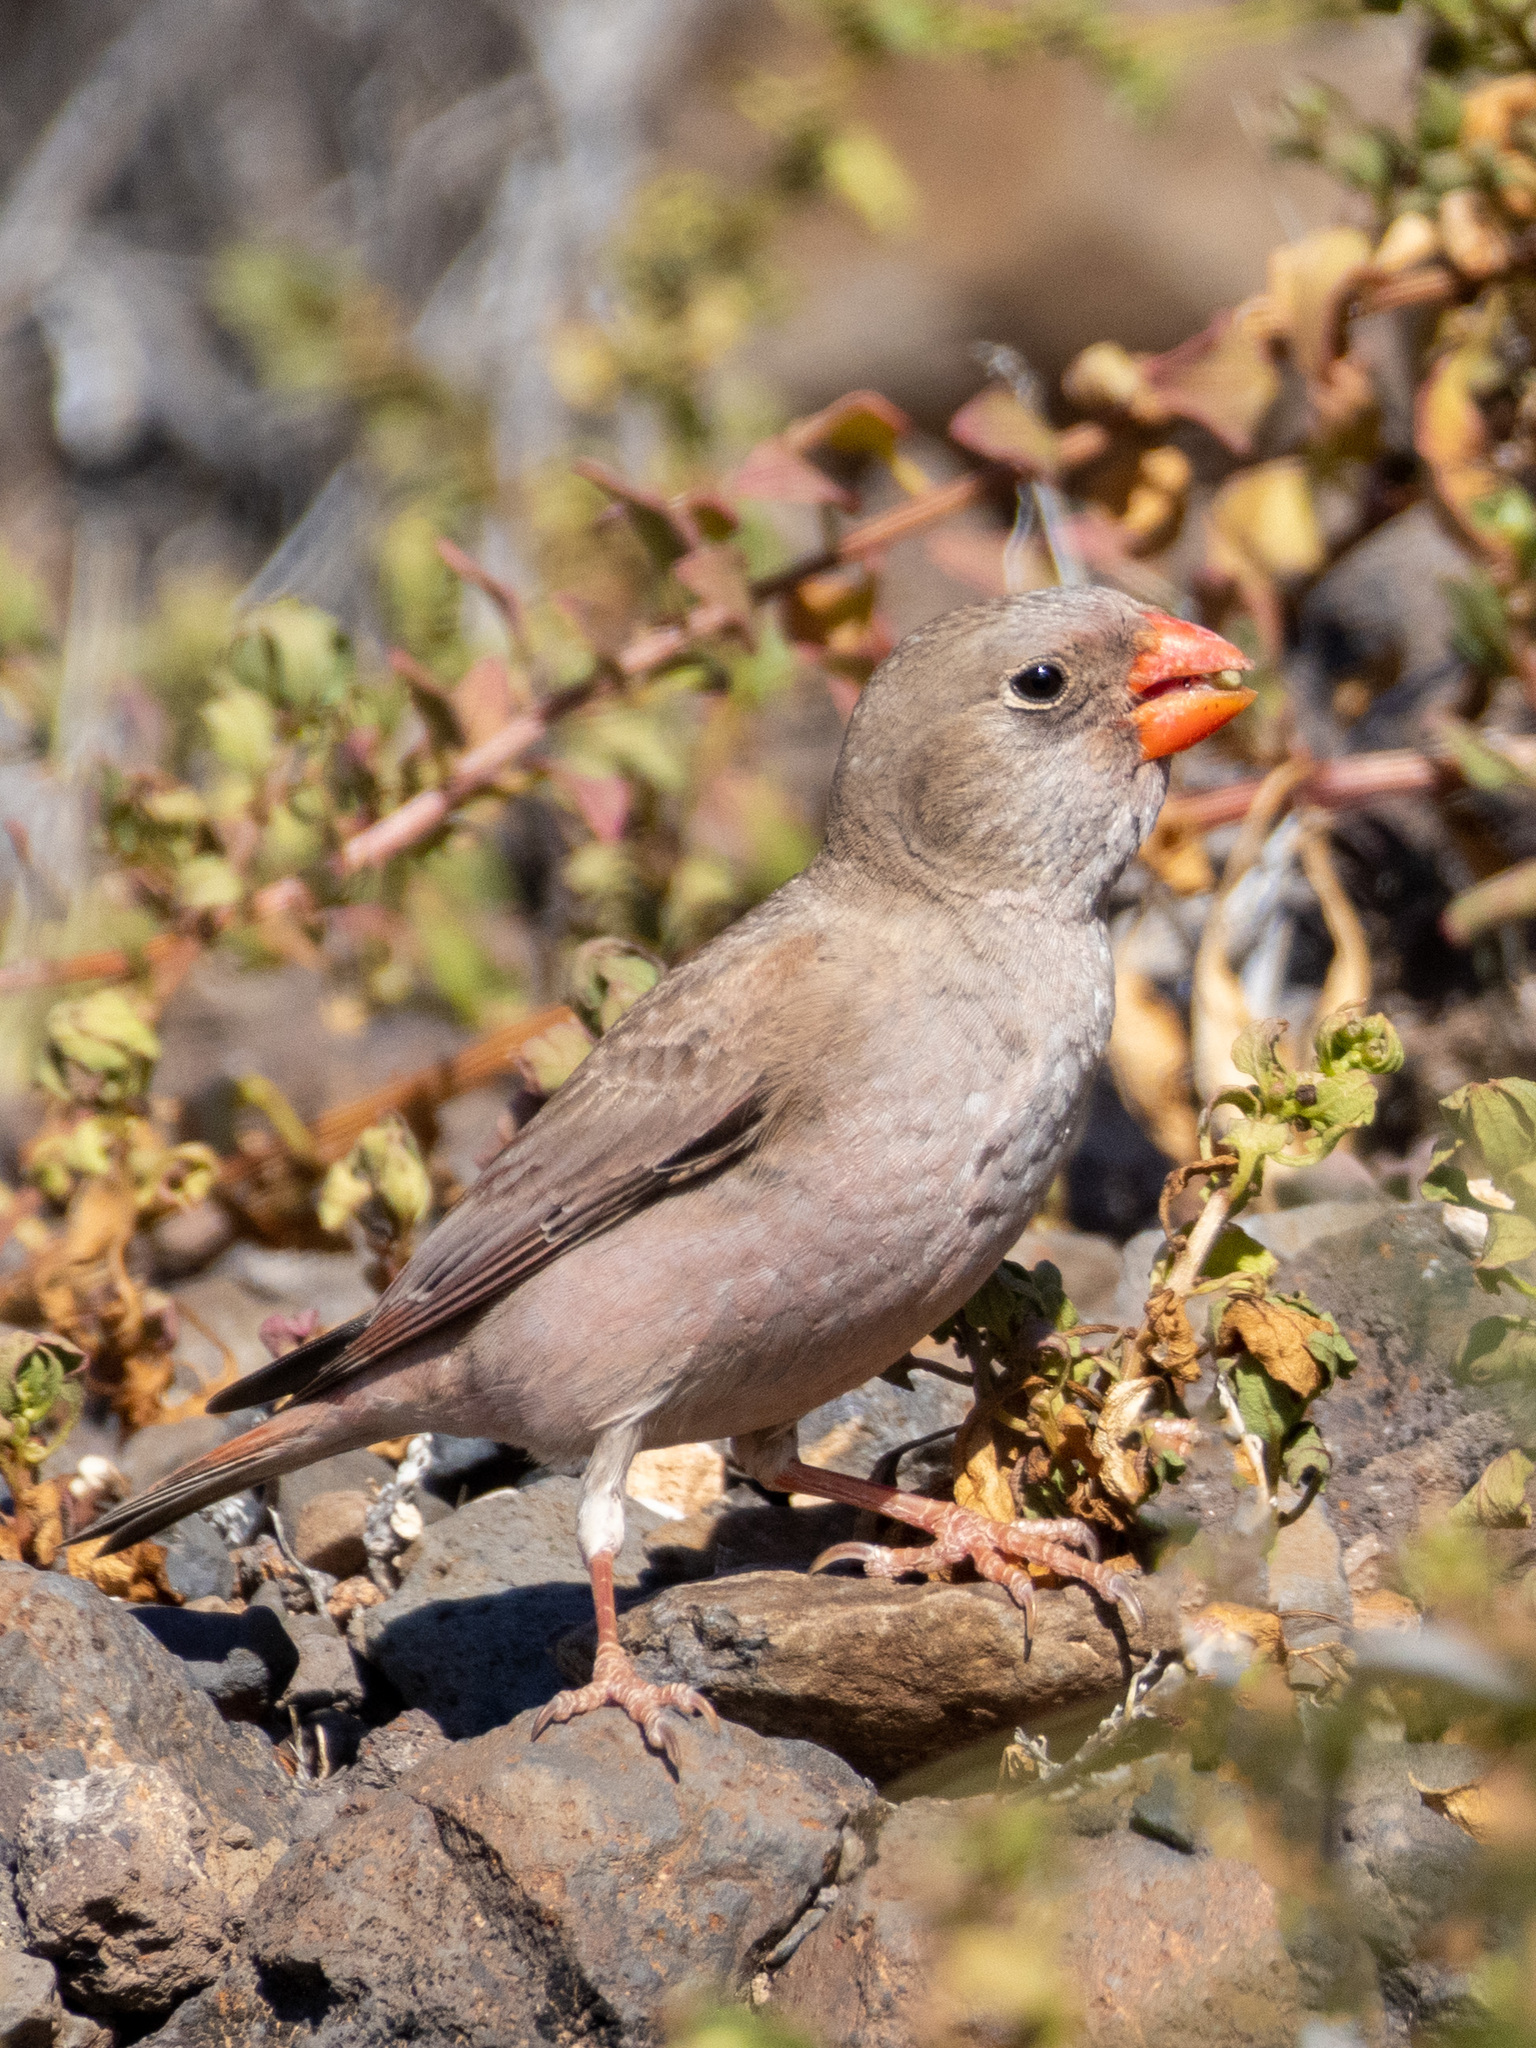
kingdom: Animalia
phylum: Chordata
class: Aves
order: Passeriformes
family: Fringillidae
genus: Bucanetes
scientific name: Bucanetes githagineus
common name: Trumpeter finch
